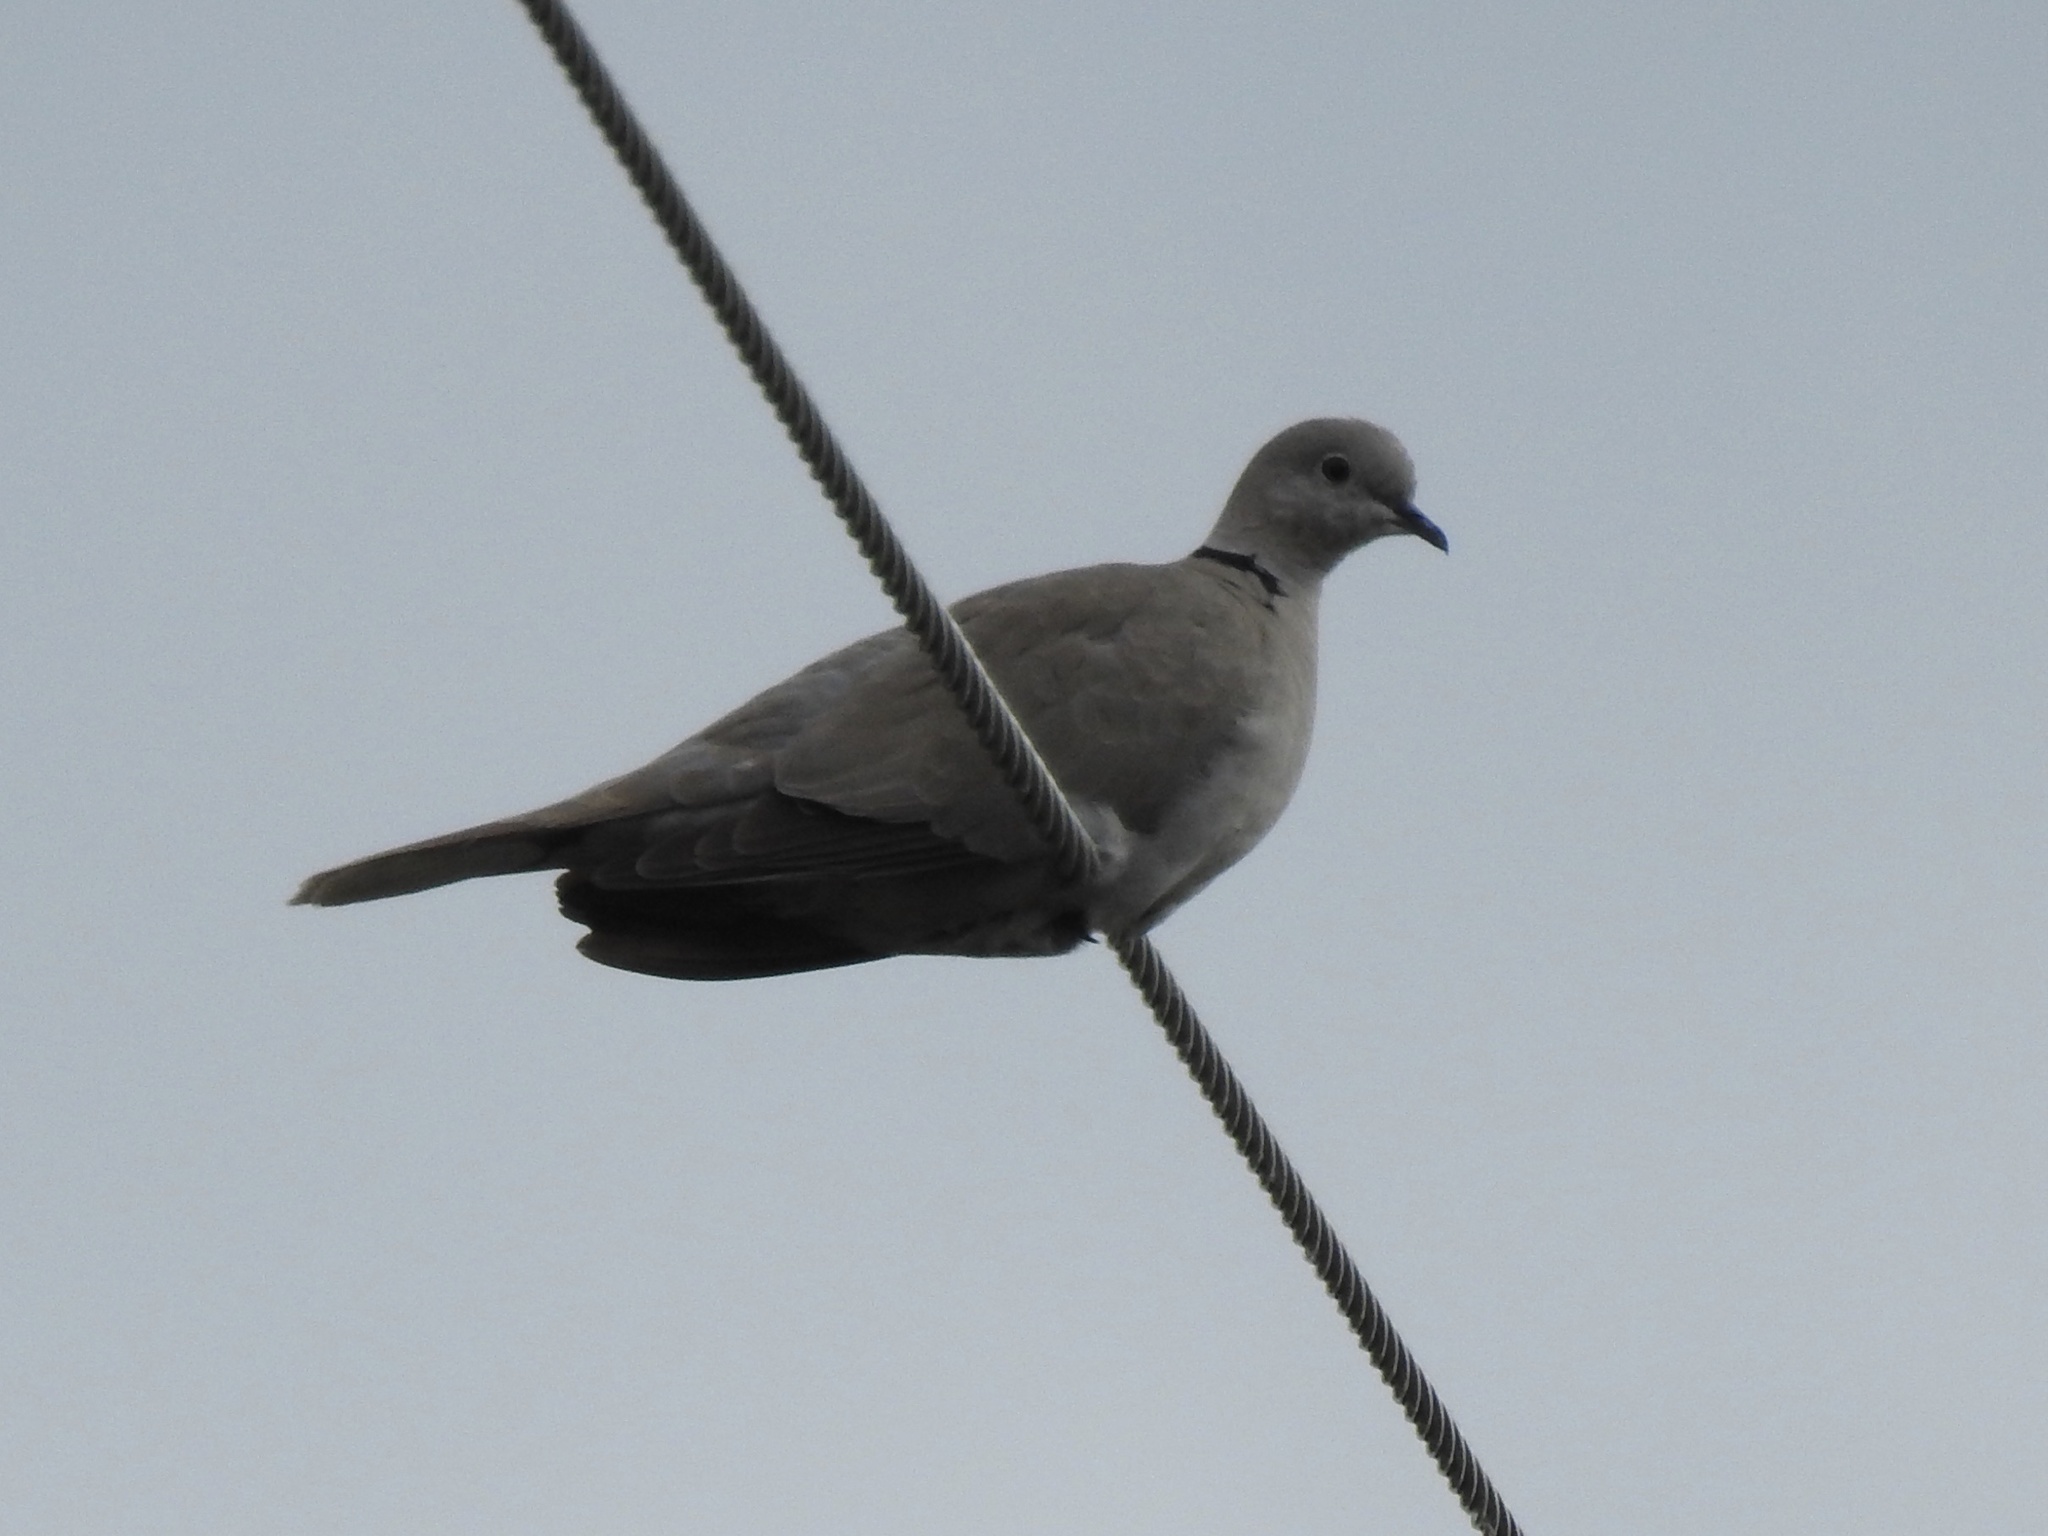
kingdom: Animalia
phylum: Chordata
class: Aves
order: Columbiformes
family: Columbidae
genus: Streptopelia
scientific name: Streptopelia decaocto
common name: Eurasian collared dove
